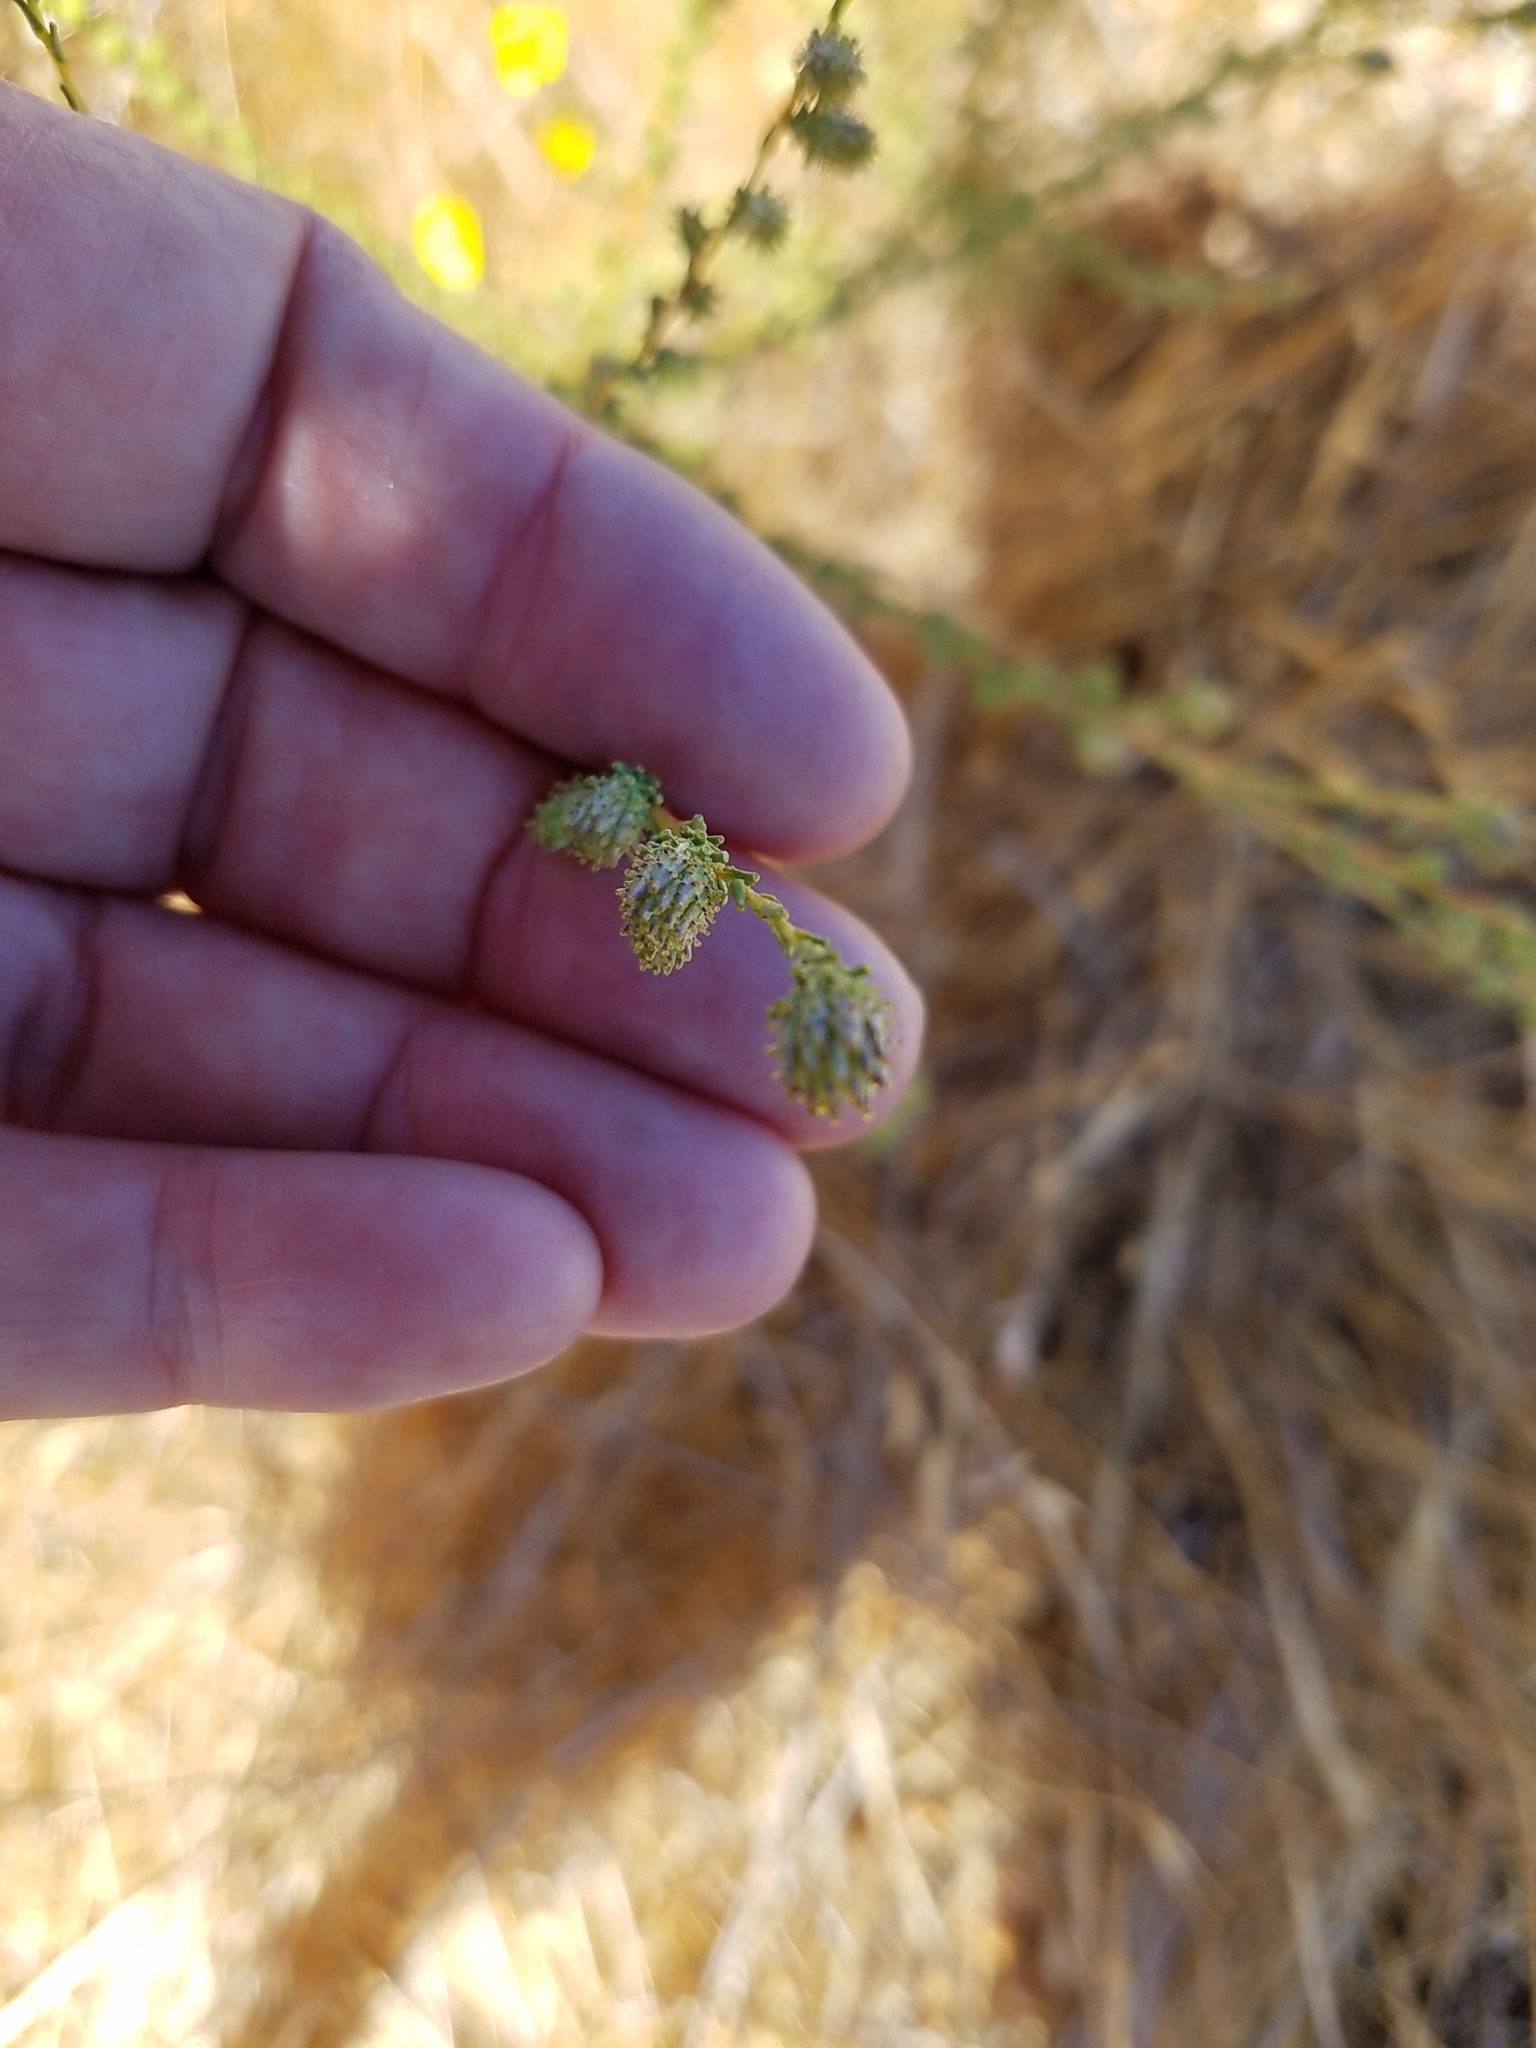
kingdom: Plantae
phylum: Tracheophyta
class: Magnoliopsida
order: Asterales
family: Asteraceae
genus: Holocarpha
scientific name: Holocarpha virgata
